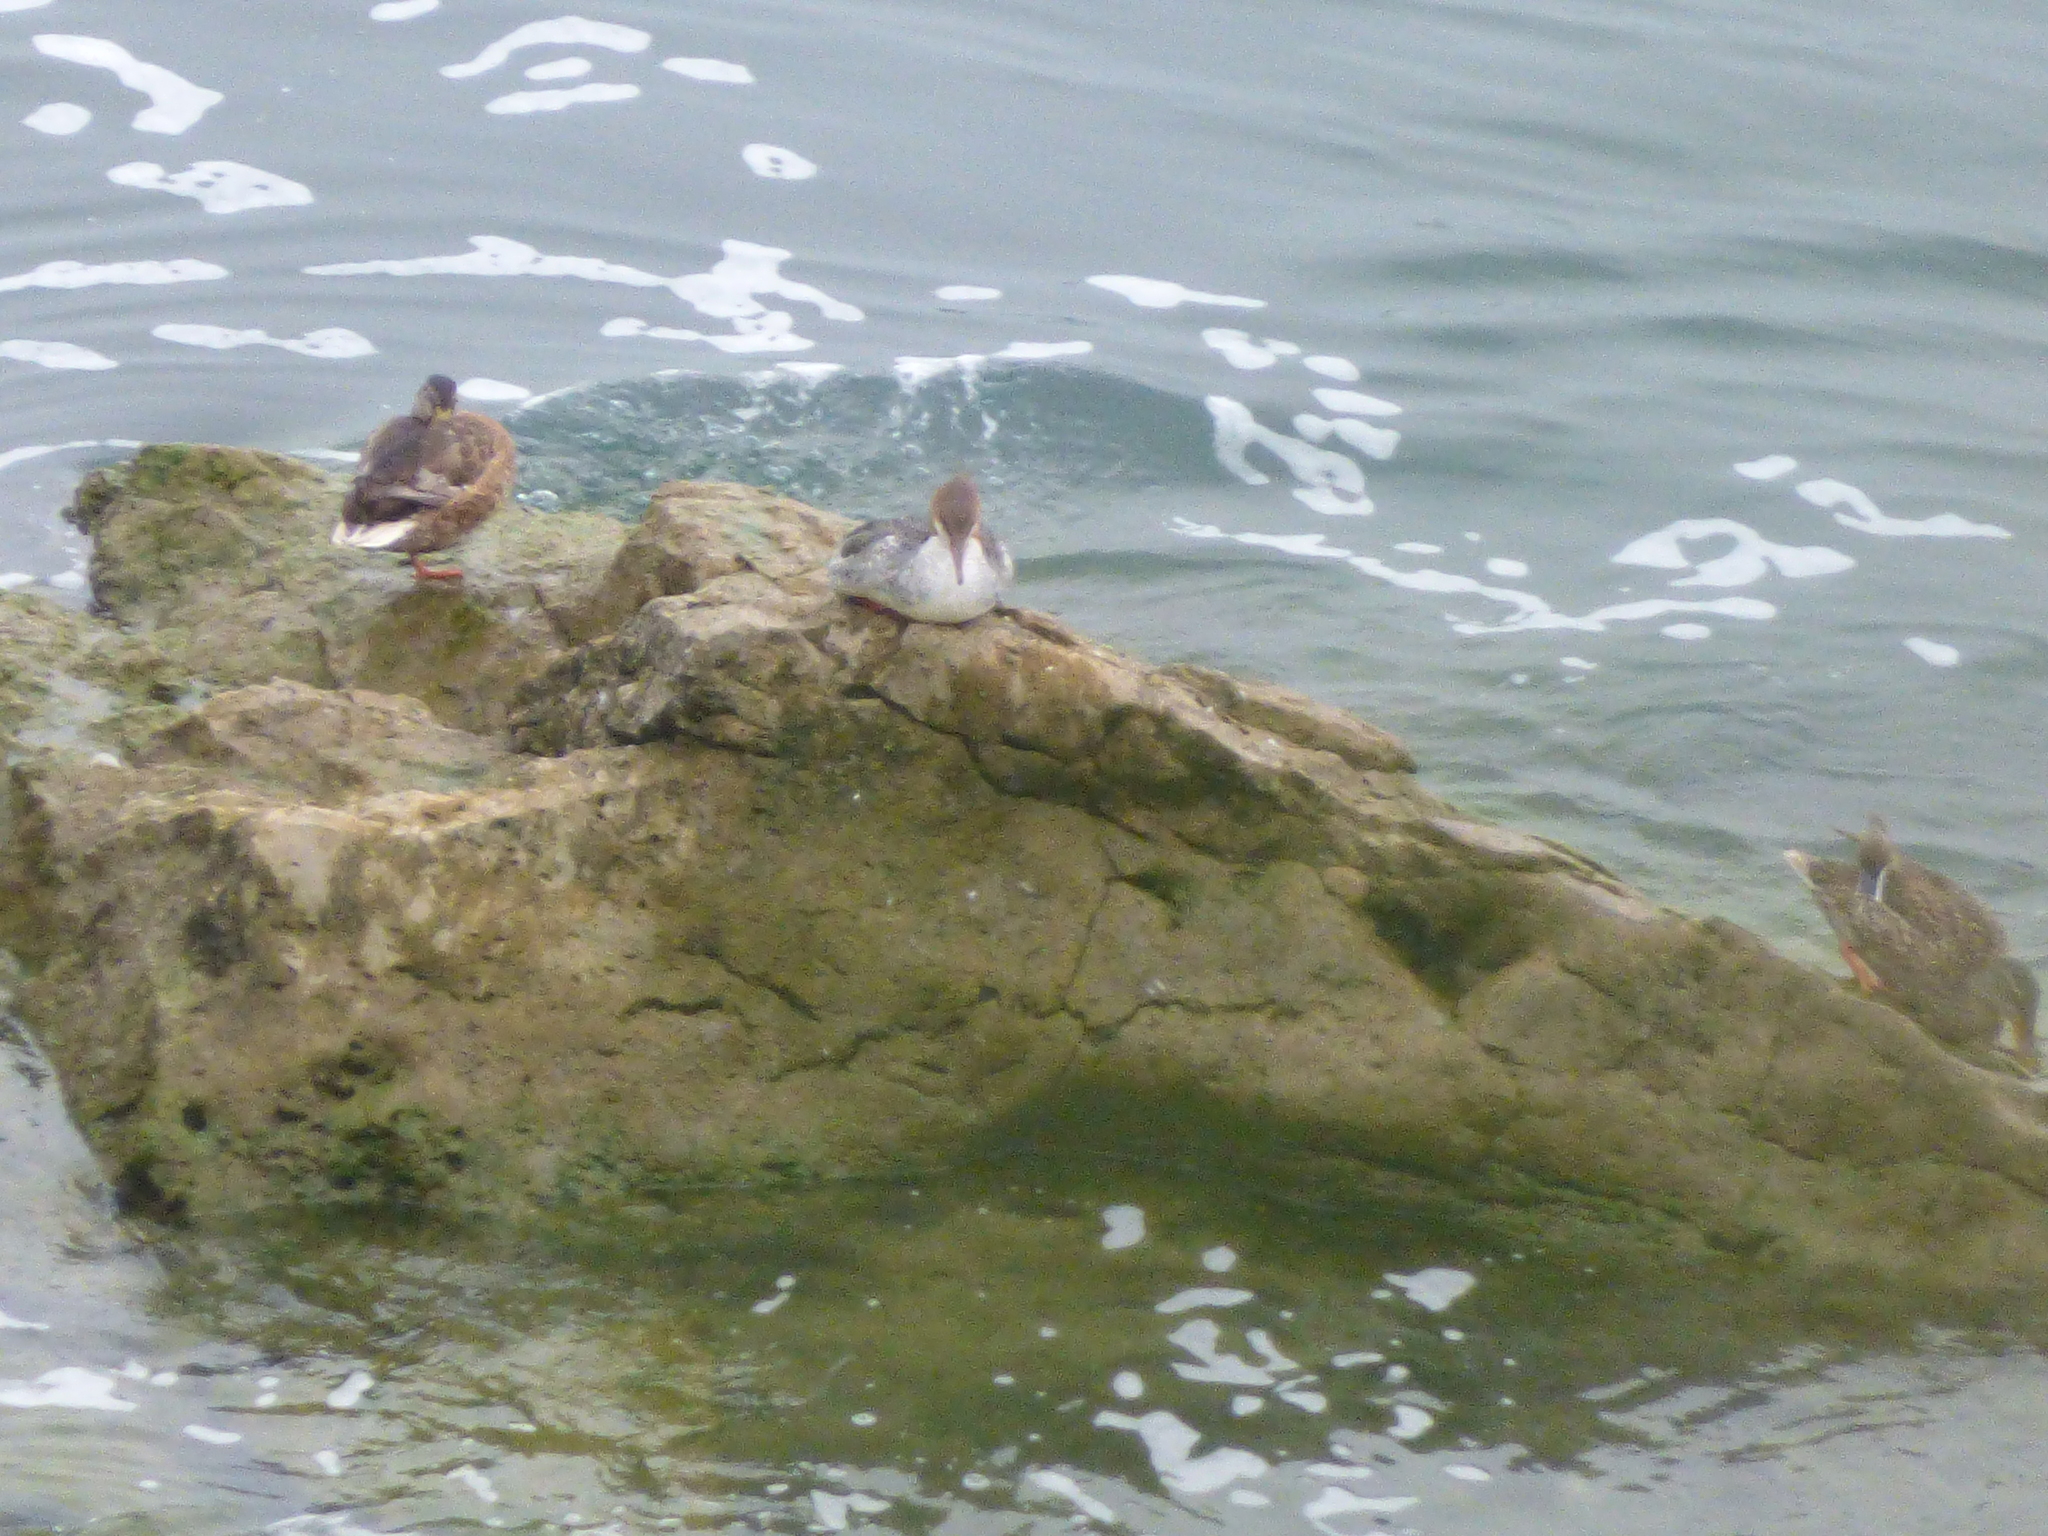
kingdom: Animalia
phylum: Chordata
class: Aves
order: Anseriformes
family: Anatidae
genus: Mergus
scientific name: Mergus merganser
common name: Common merganser
